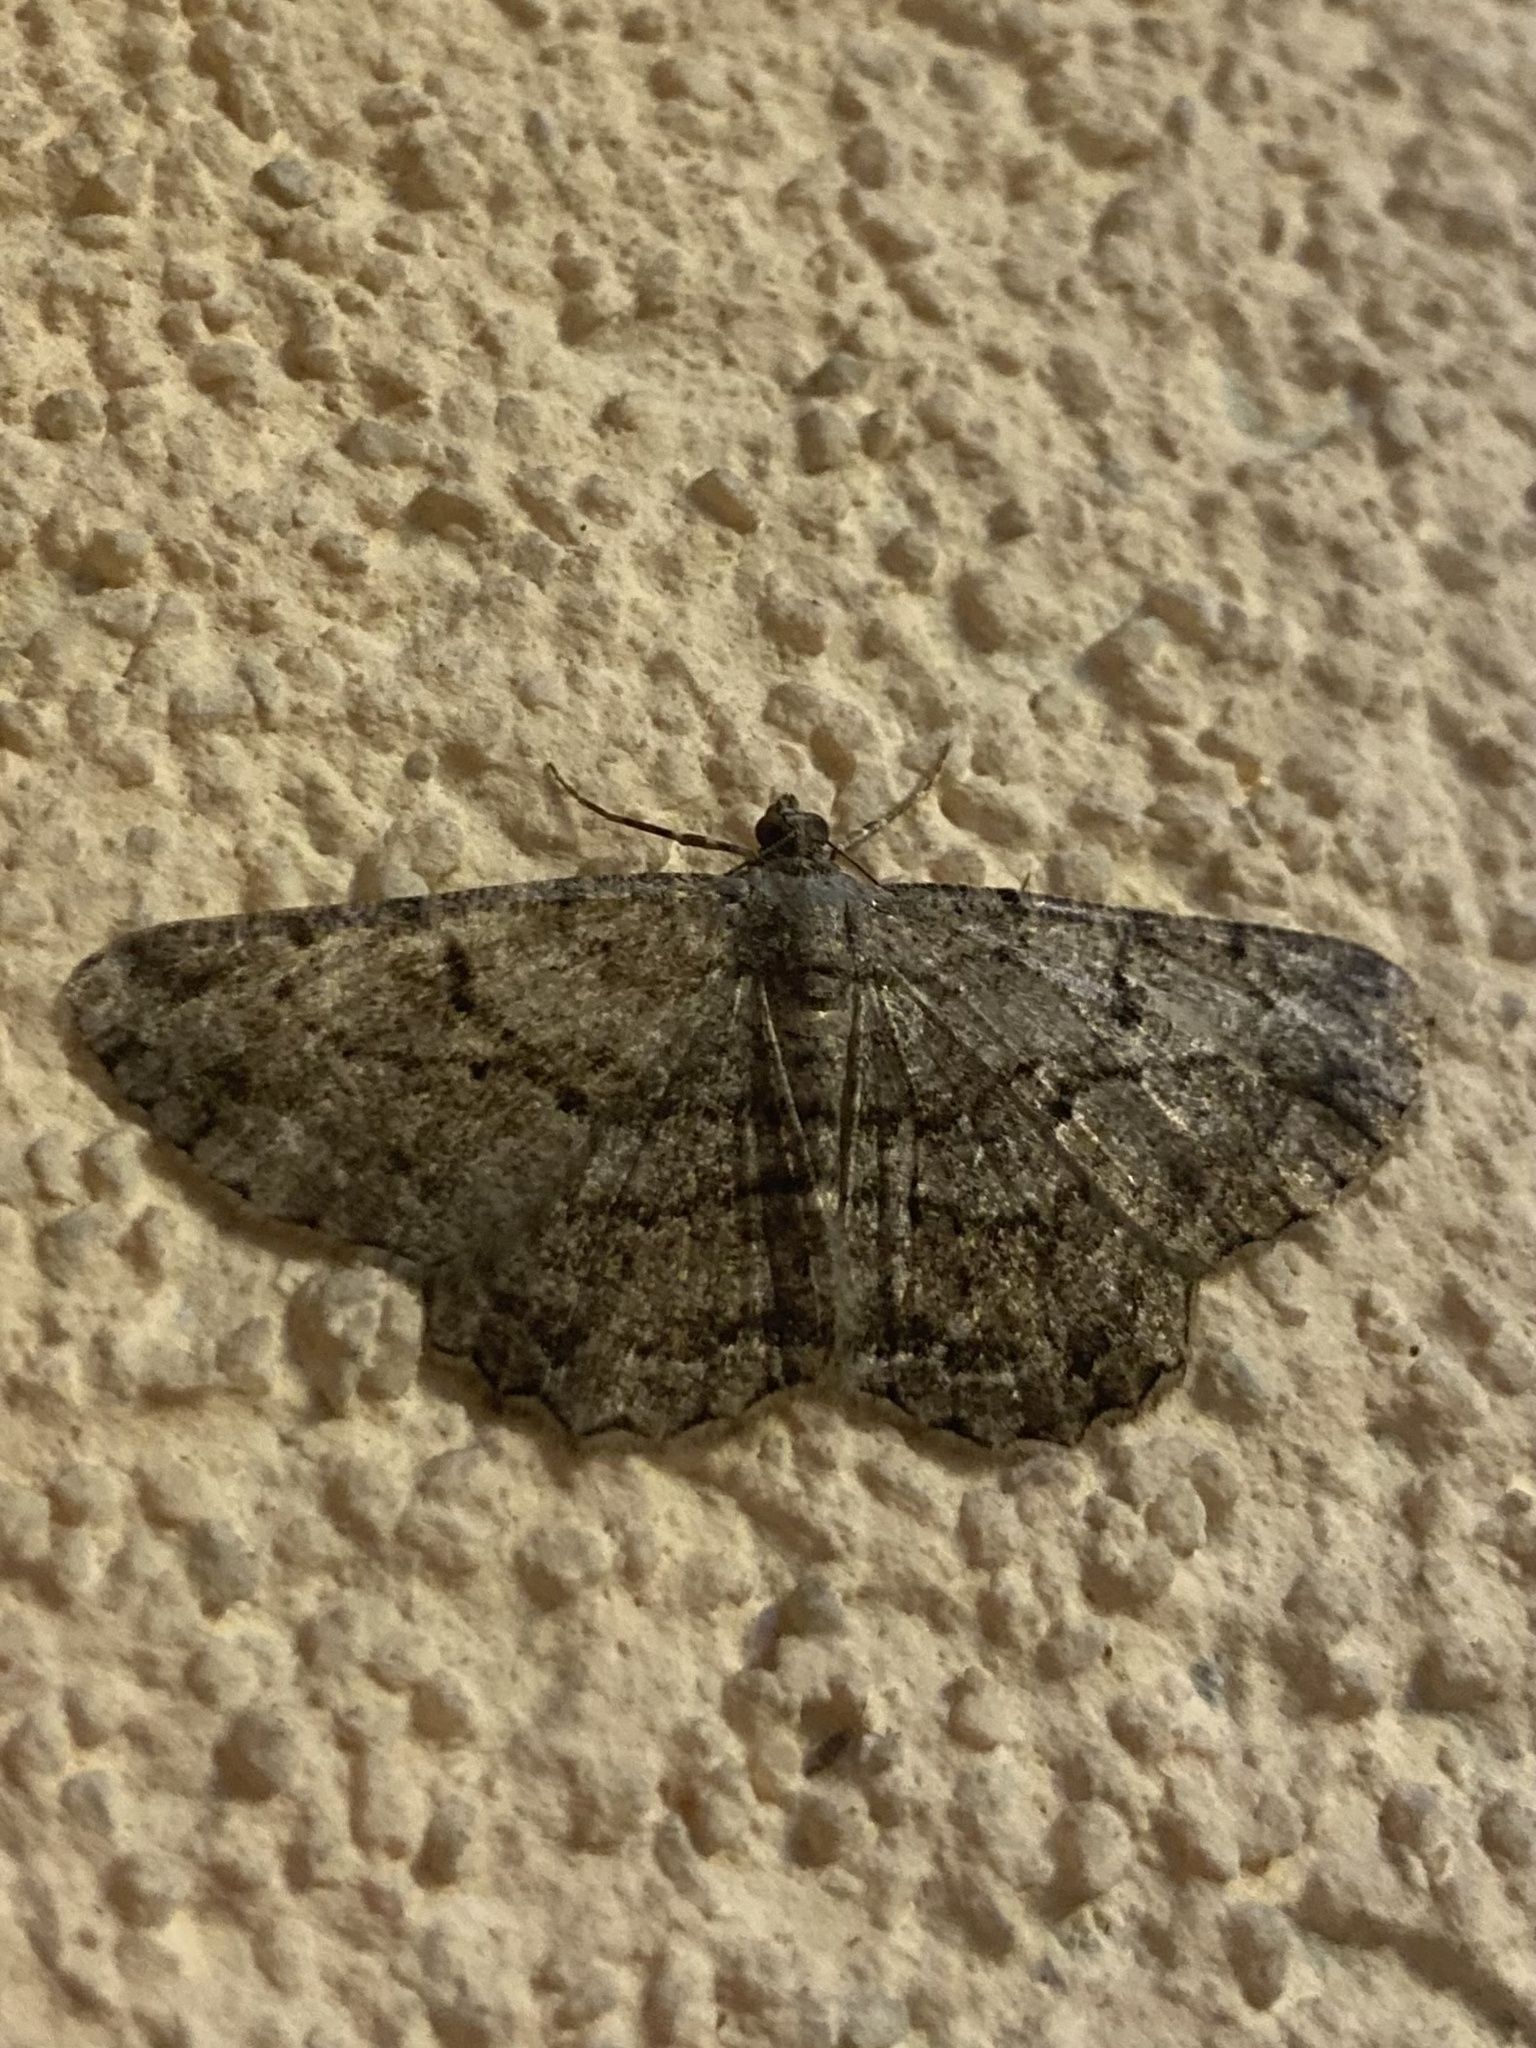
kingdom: Animalia
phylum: Arthropoda
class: Insecta
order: Lepidoptera
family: Geometridae
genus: Peribatodes
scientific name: Peribatodes rhomboidaria
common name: Willow beauty
